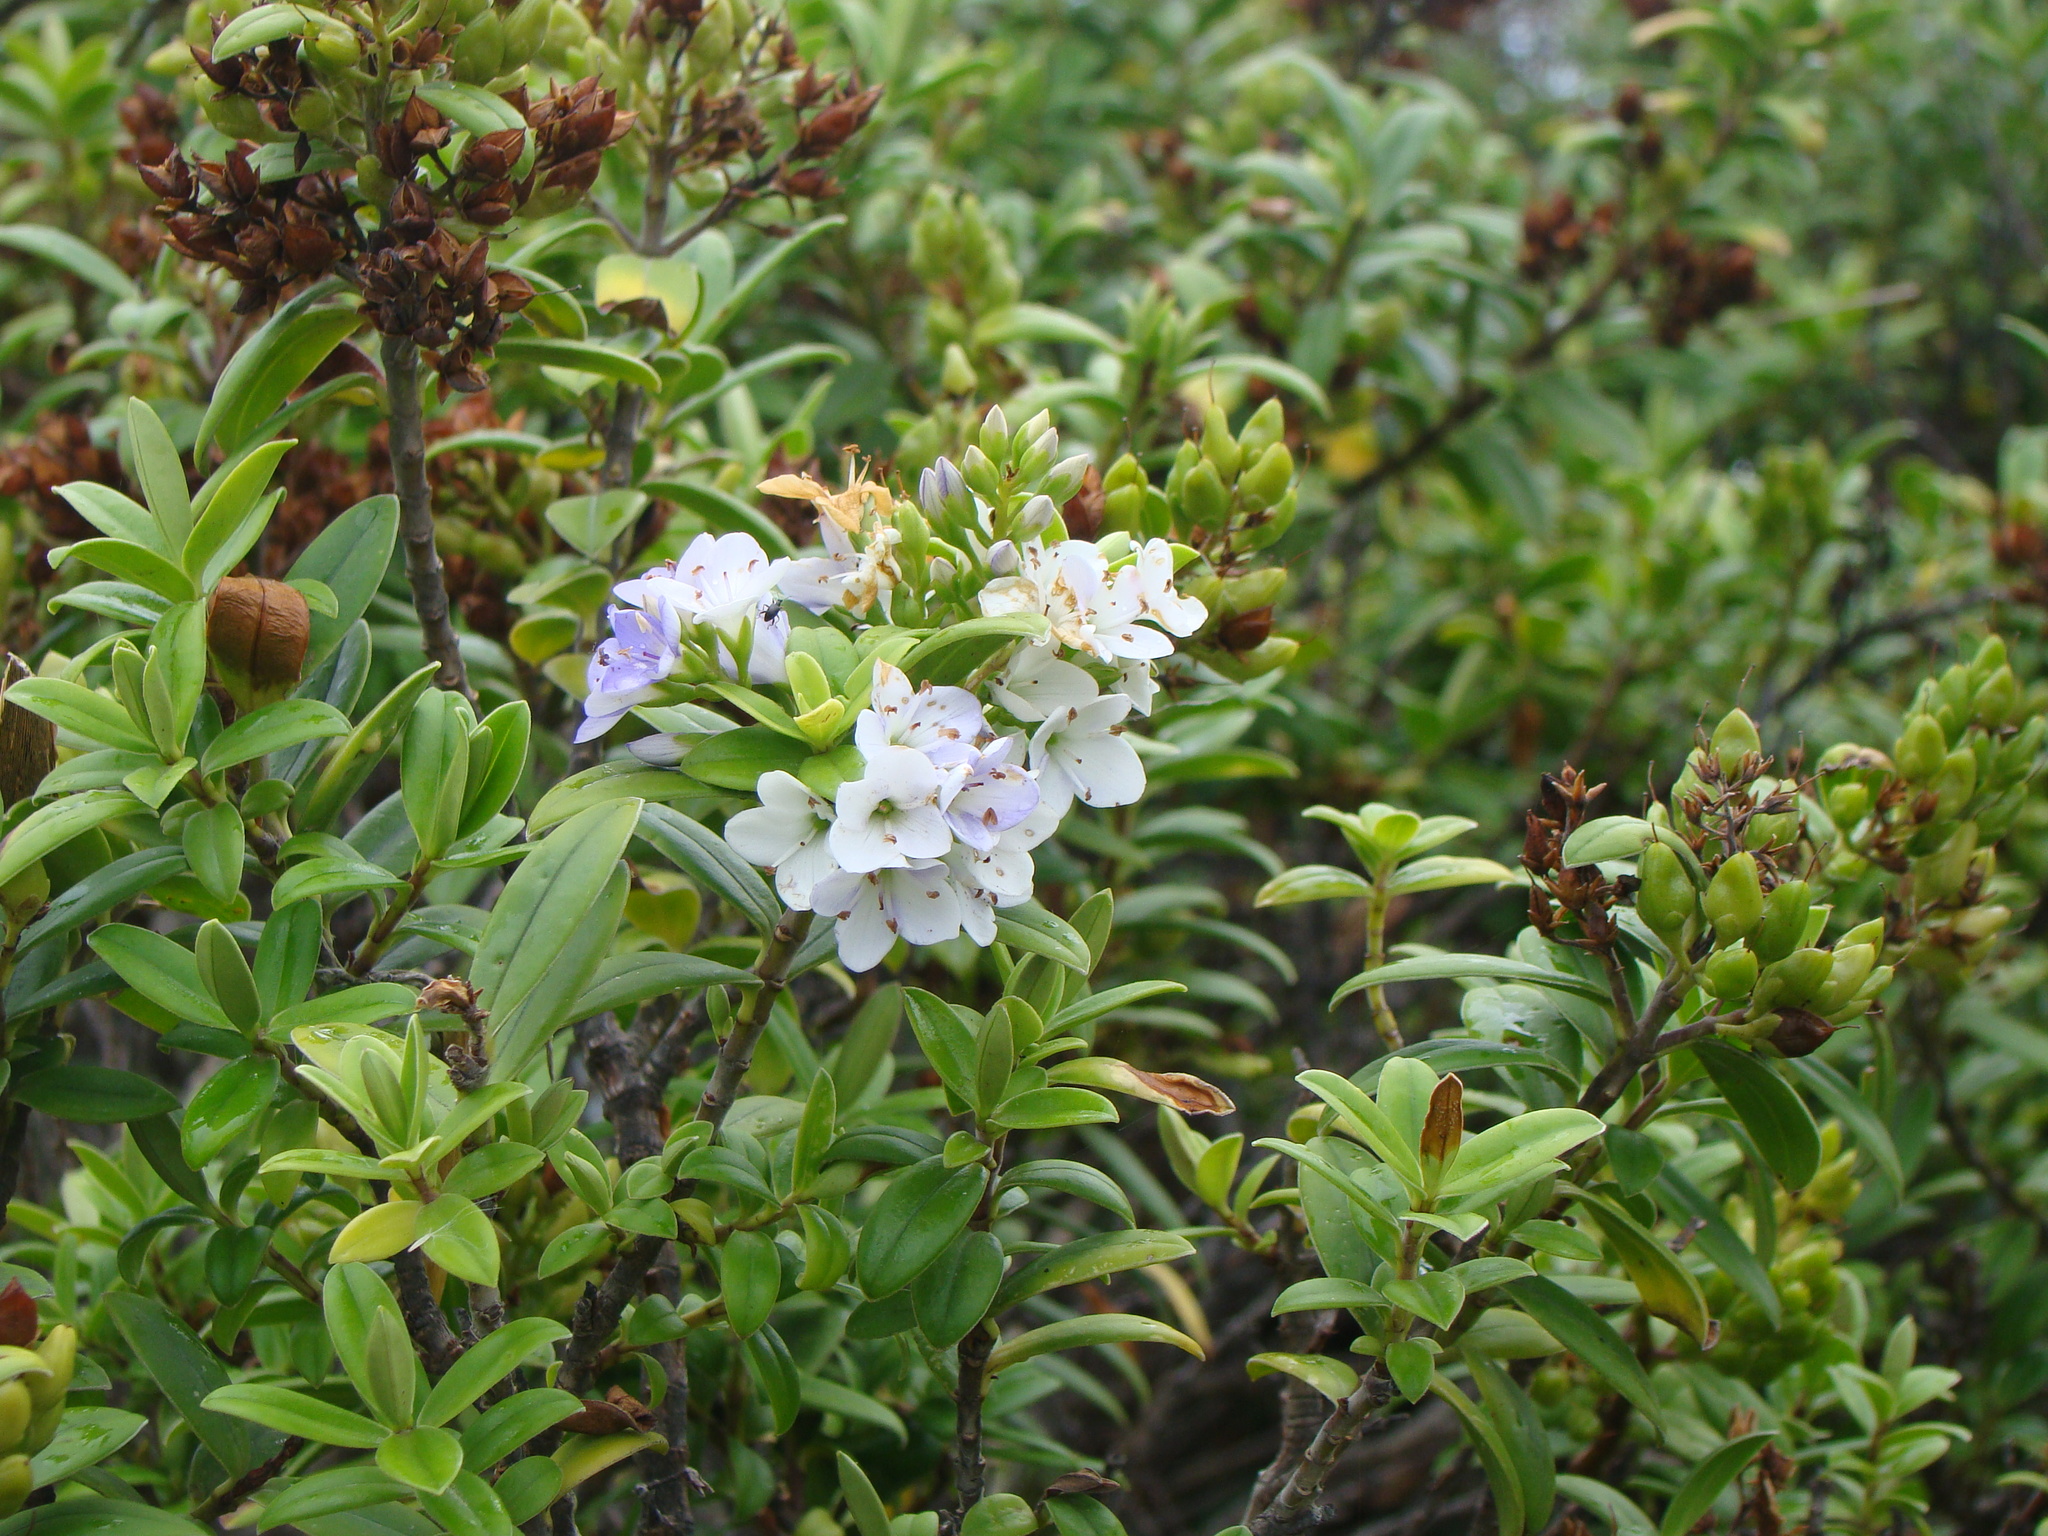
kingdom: Plantae
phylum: Tracheophyta
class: Magnoliopsida
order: Lamiales
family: Plantaginaceae
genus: Veronica
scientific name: Veronica elliptica
